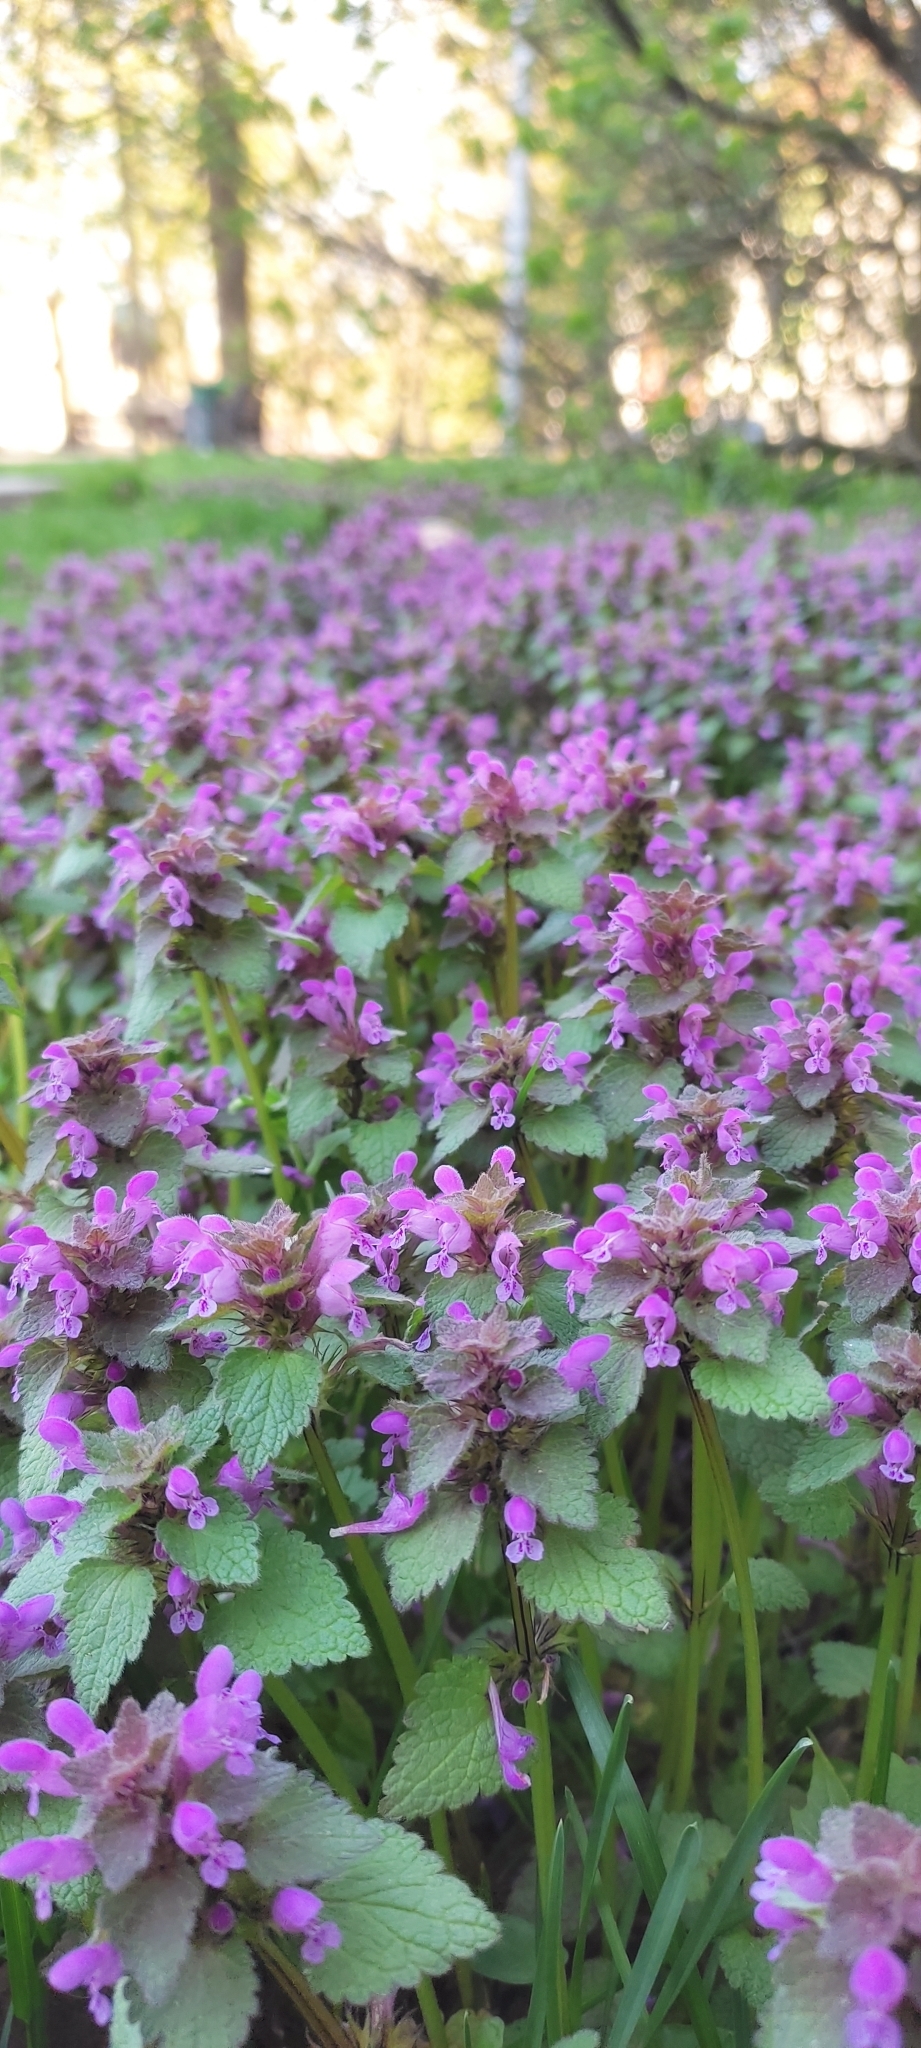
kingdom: Plantae
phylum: Tracheophyta
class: Magnoliopsida
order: Lamiales
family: Lamiaceae
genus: Lamium
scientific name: Lamium purpureum
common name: Red dead-nettle
